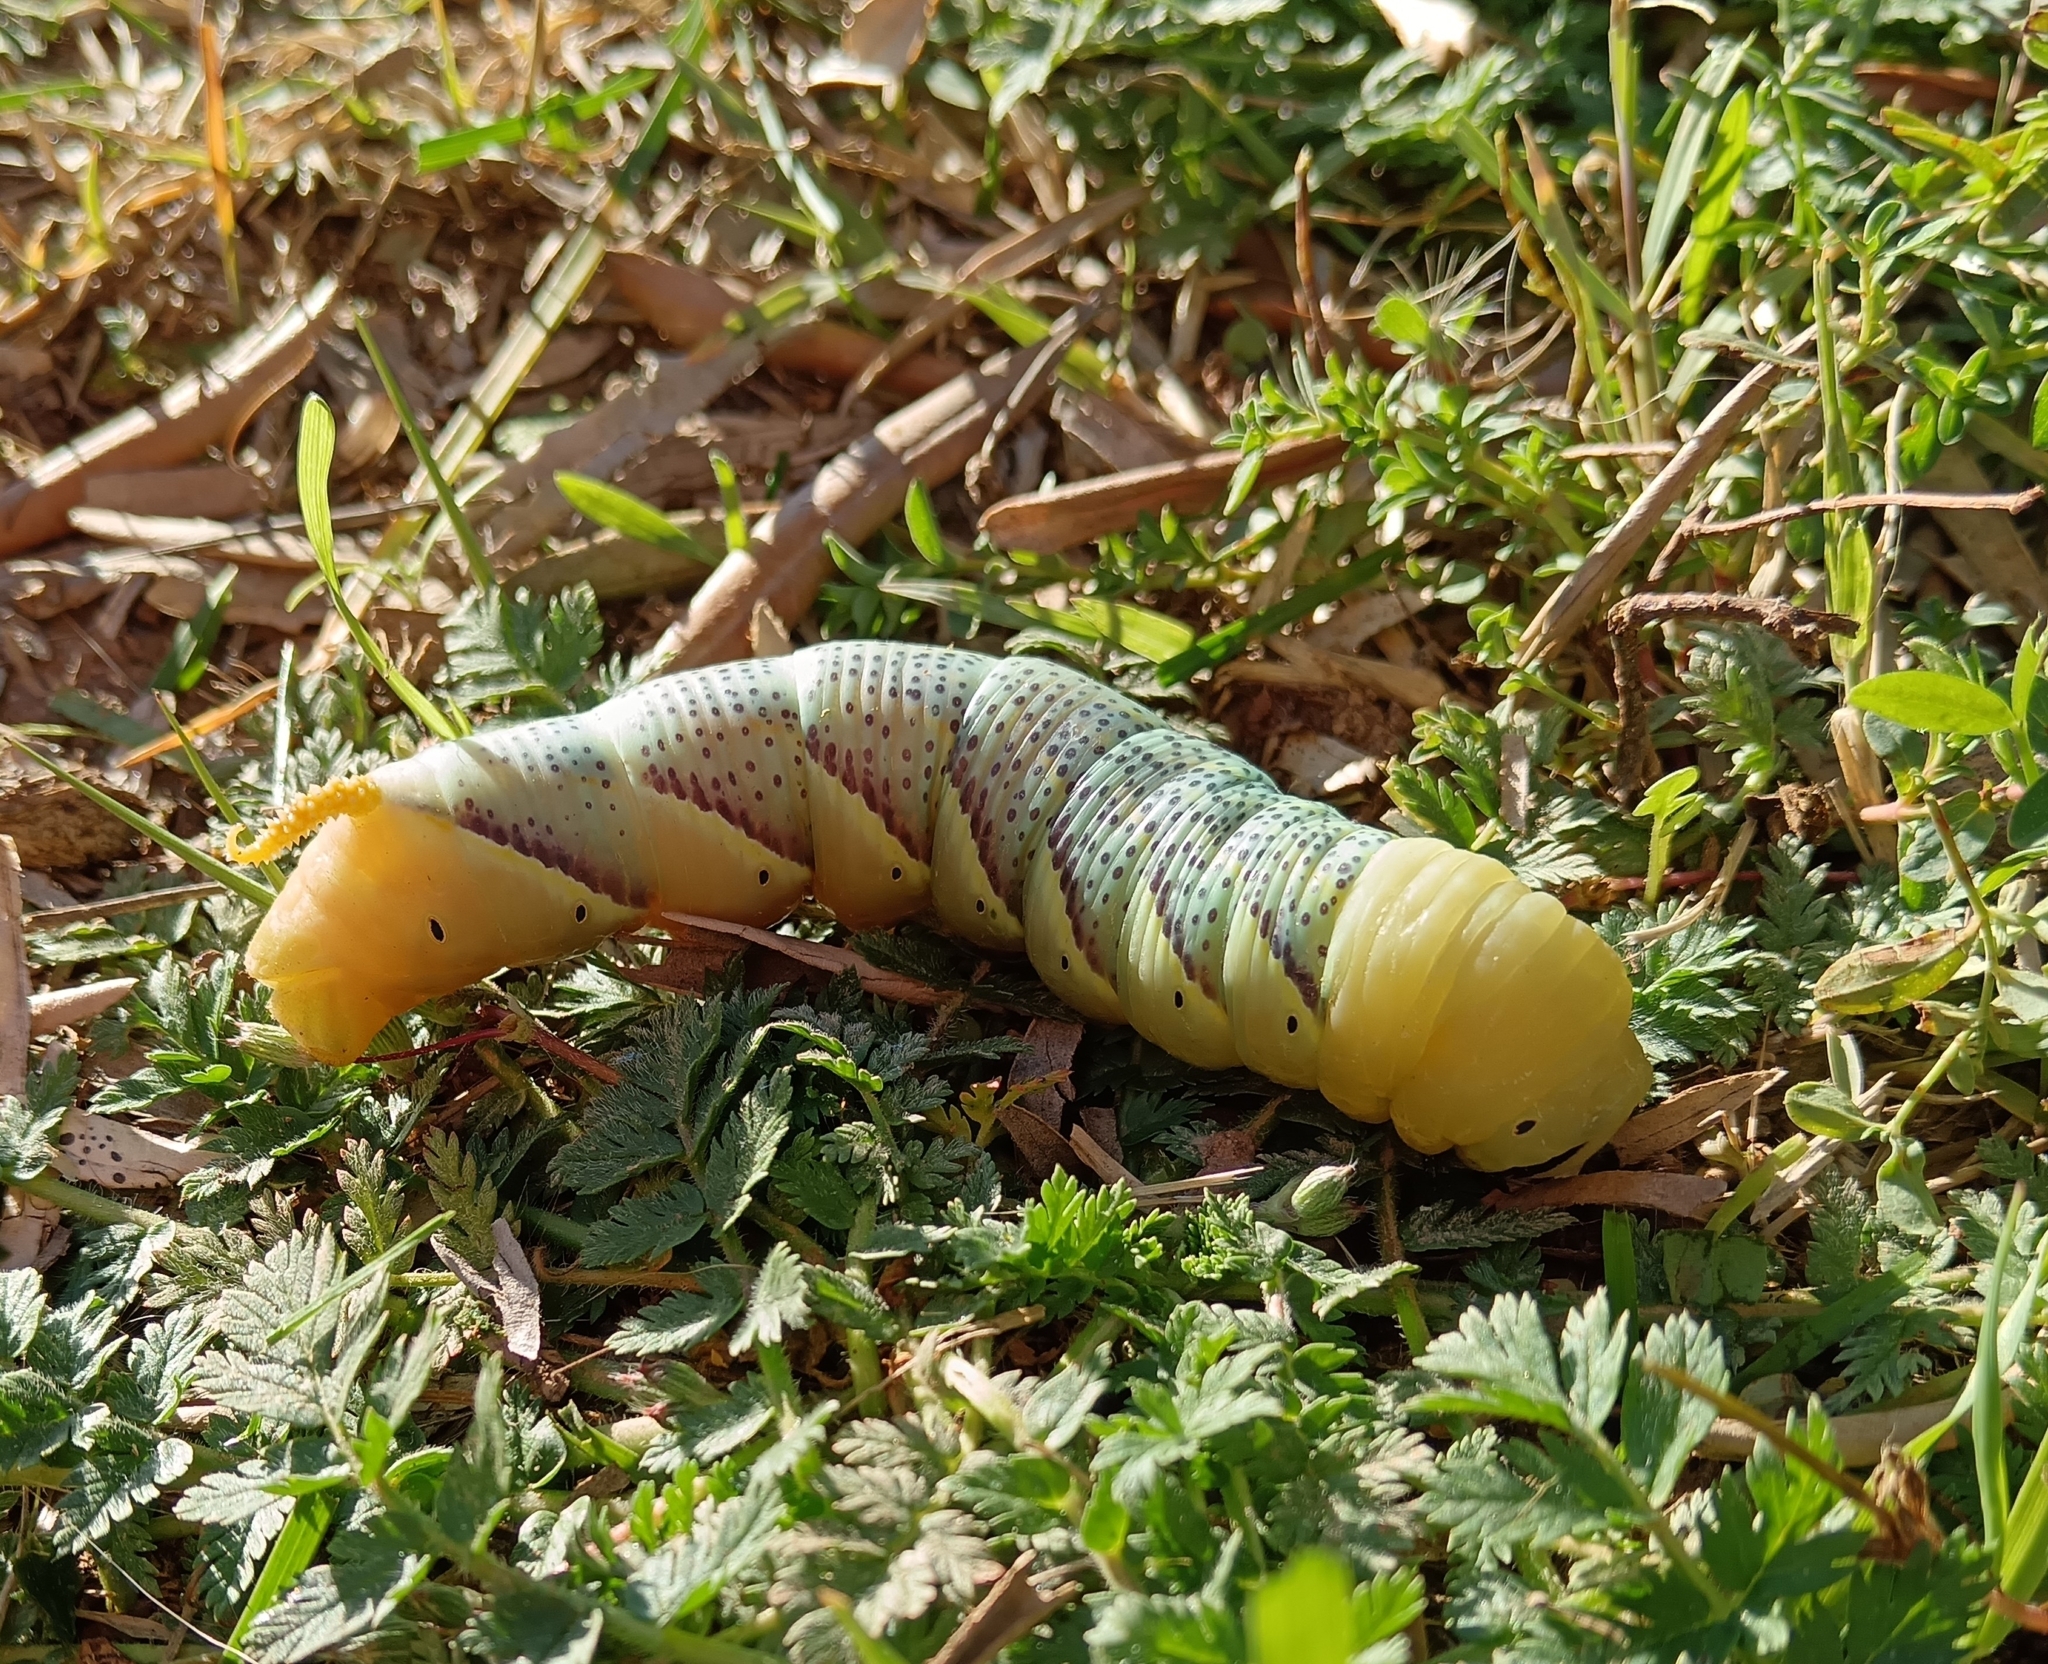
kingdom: Animalia
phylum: Arthropoda
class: Insecta
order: Lepidoptera
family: Sphingidae
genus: Acherontia
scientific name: Acherontia atropos
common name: Death's-head hawk moth
